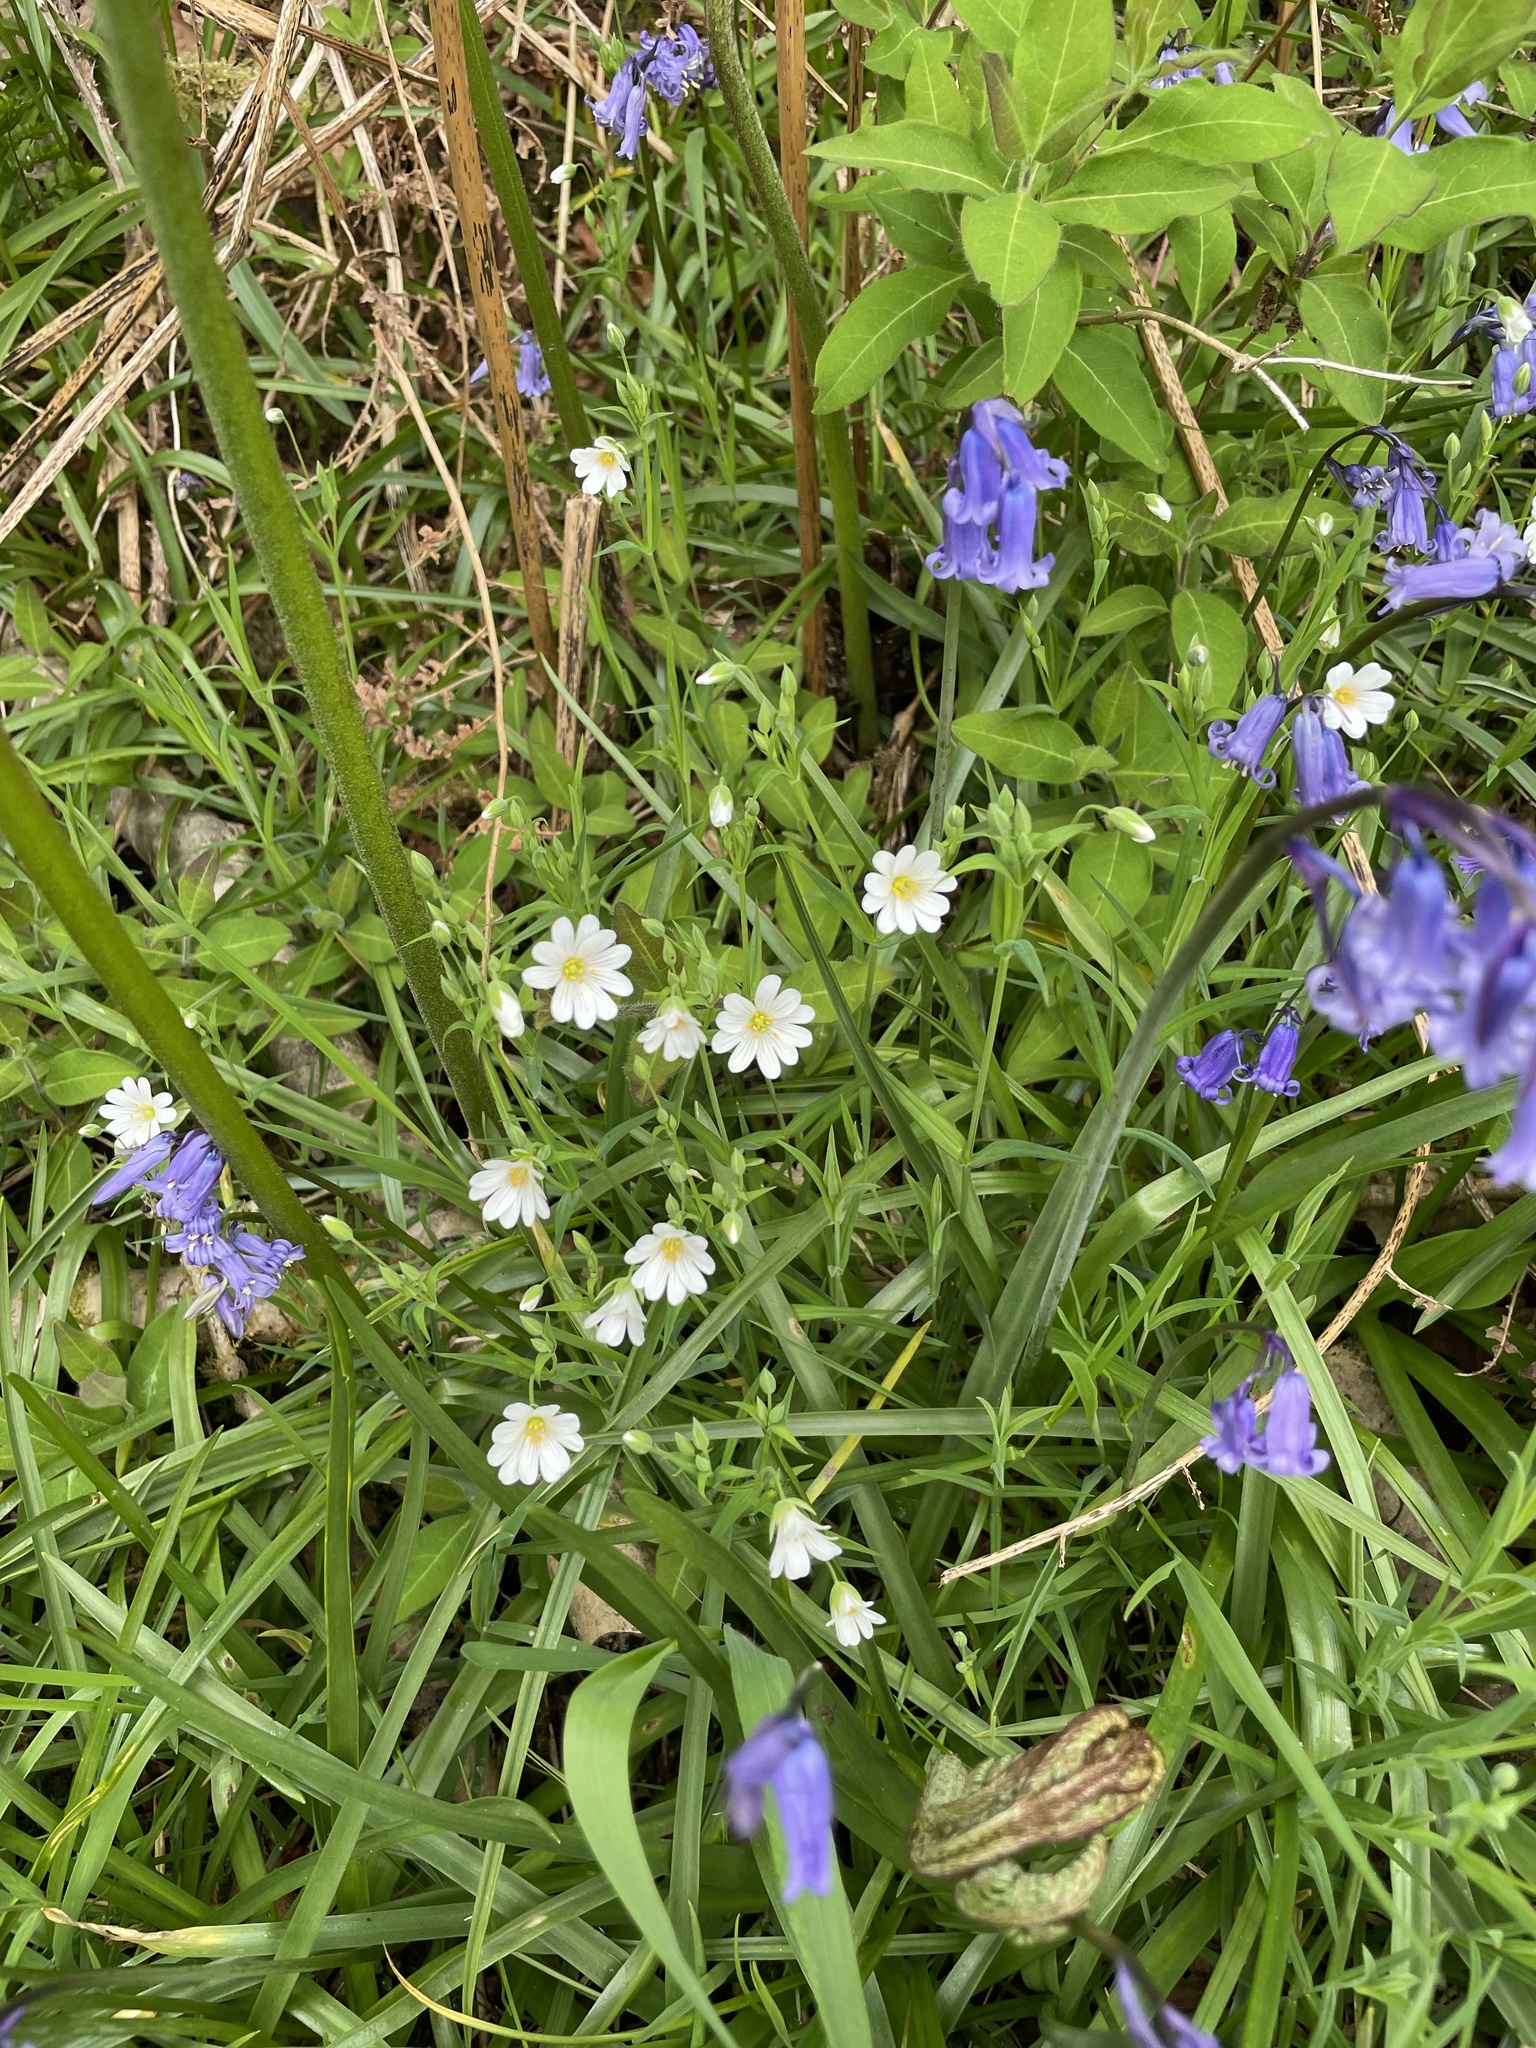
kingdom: Plantae
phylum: Tracheophyta
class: Magnoliopsida
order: Caryophyllales
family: Caryophyllaceae
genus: Rabelera
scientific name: Rabelera holostea
